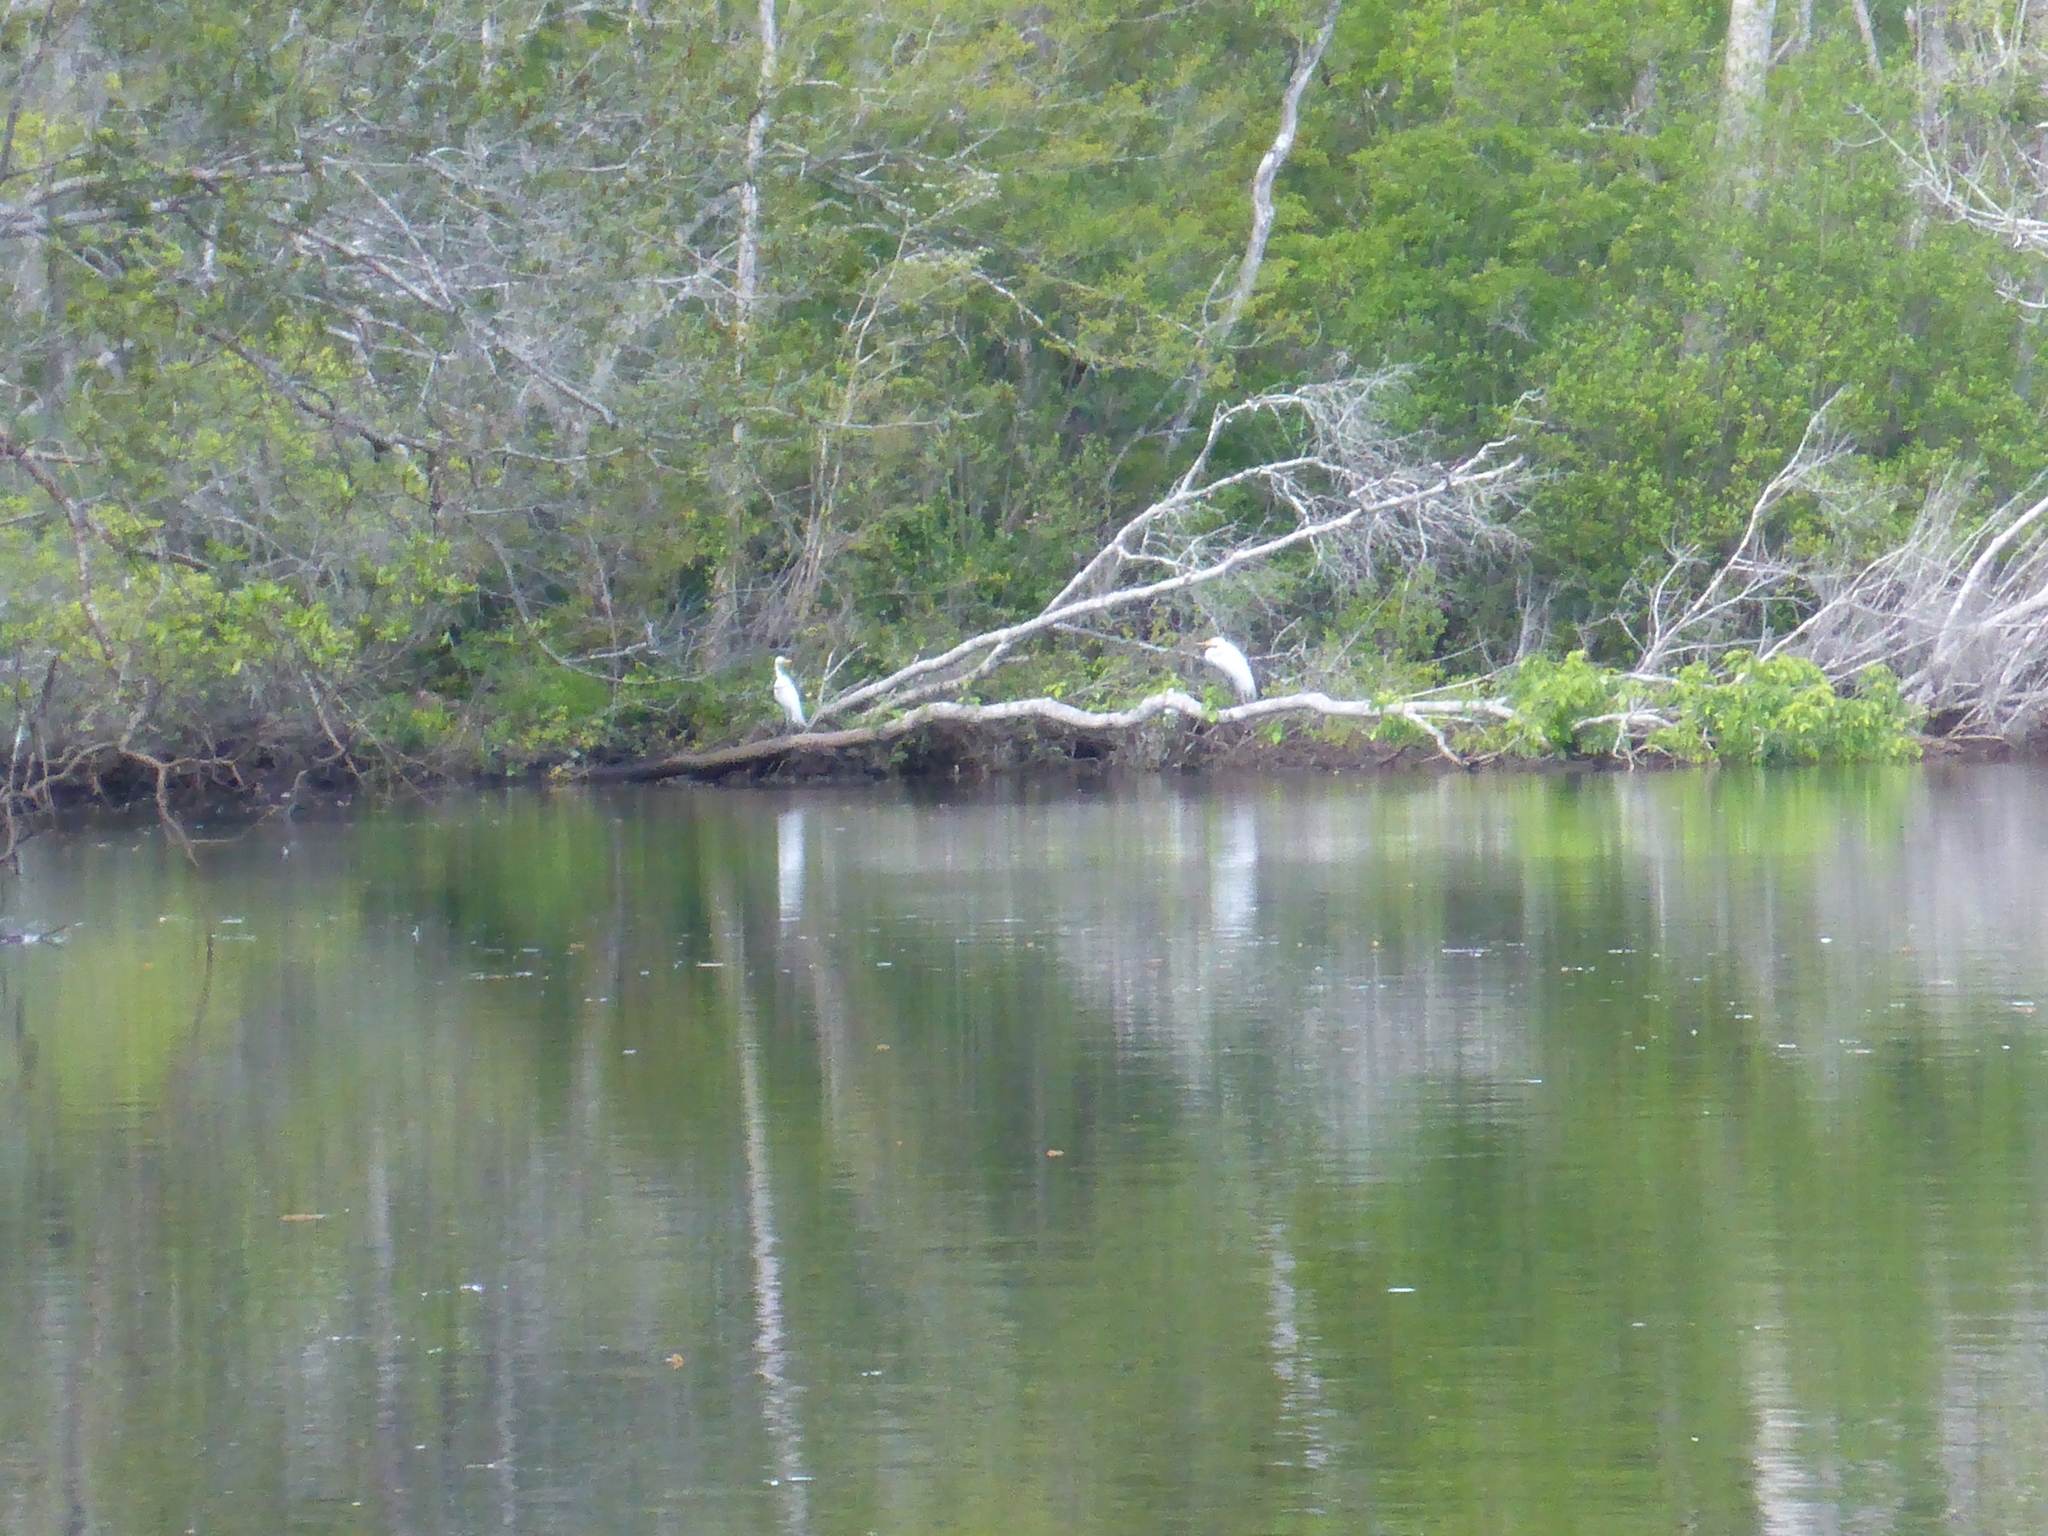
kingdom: Animalia
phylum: Chordata
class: Aves
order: Pelecaniformes
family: Ardeidae
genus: Ardea
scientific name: Ardea alba
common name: Great egret
